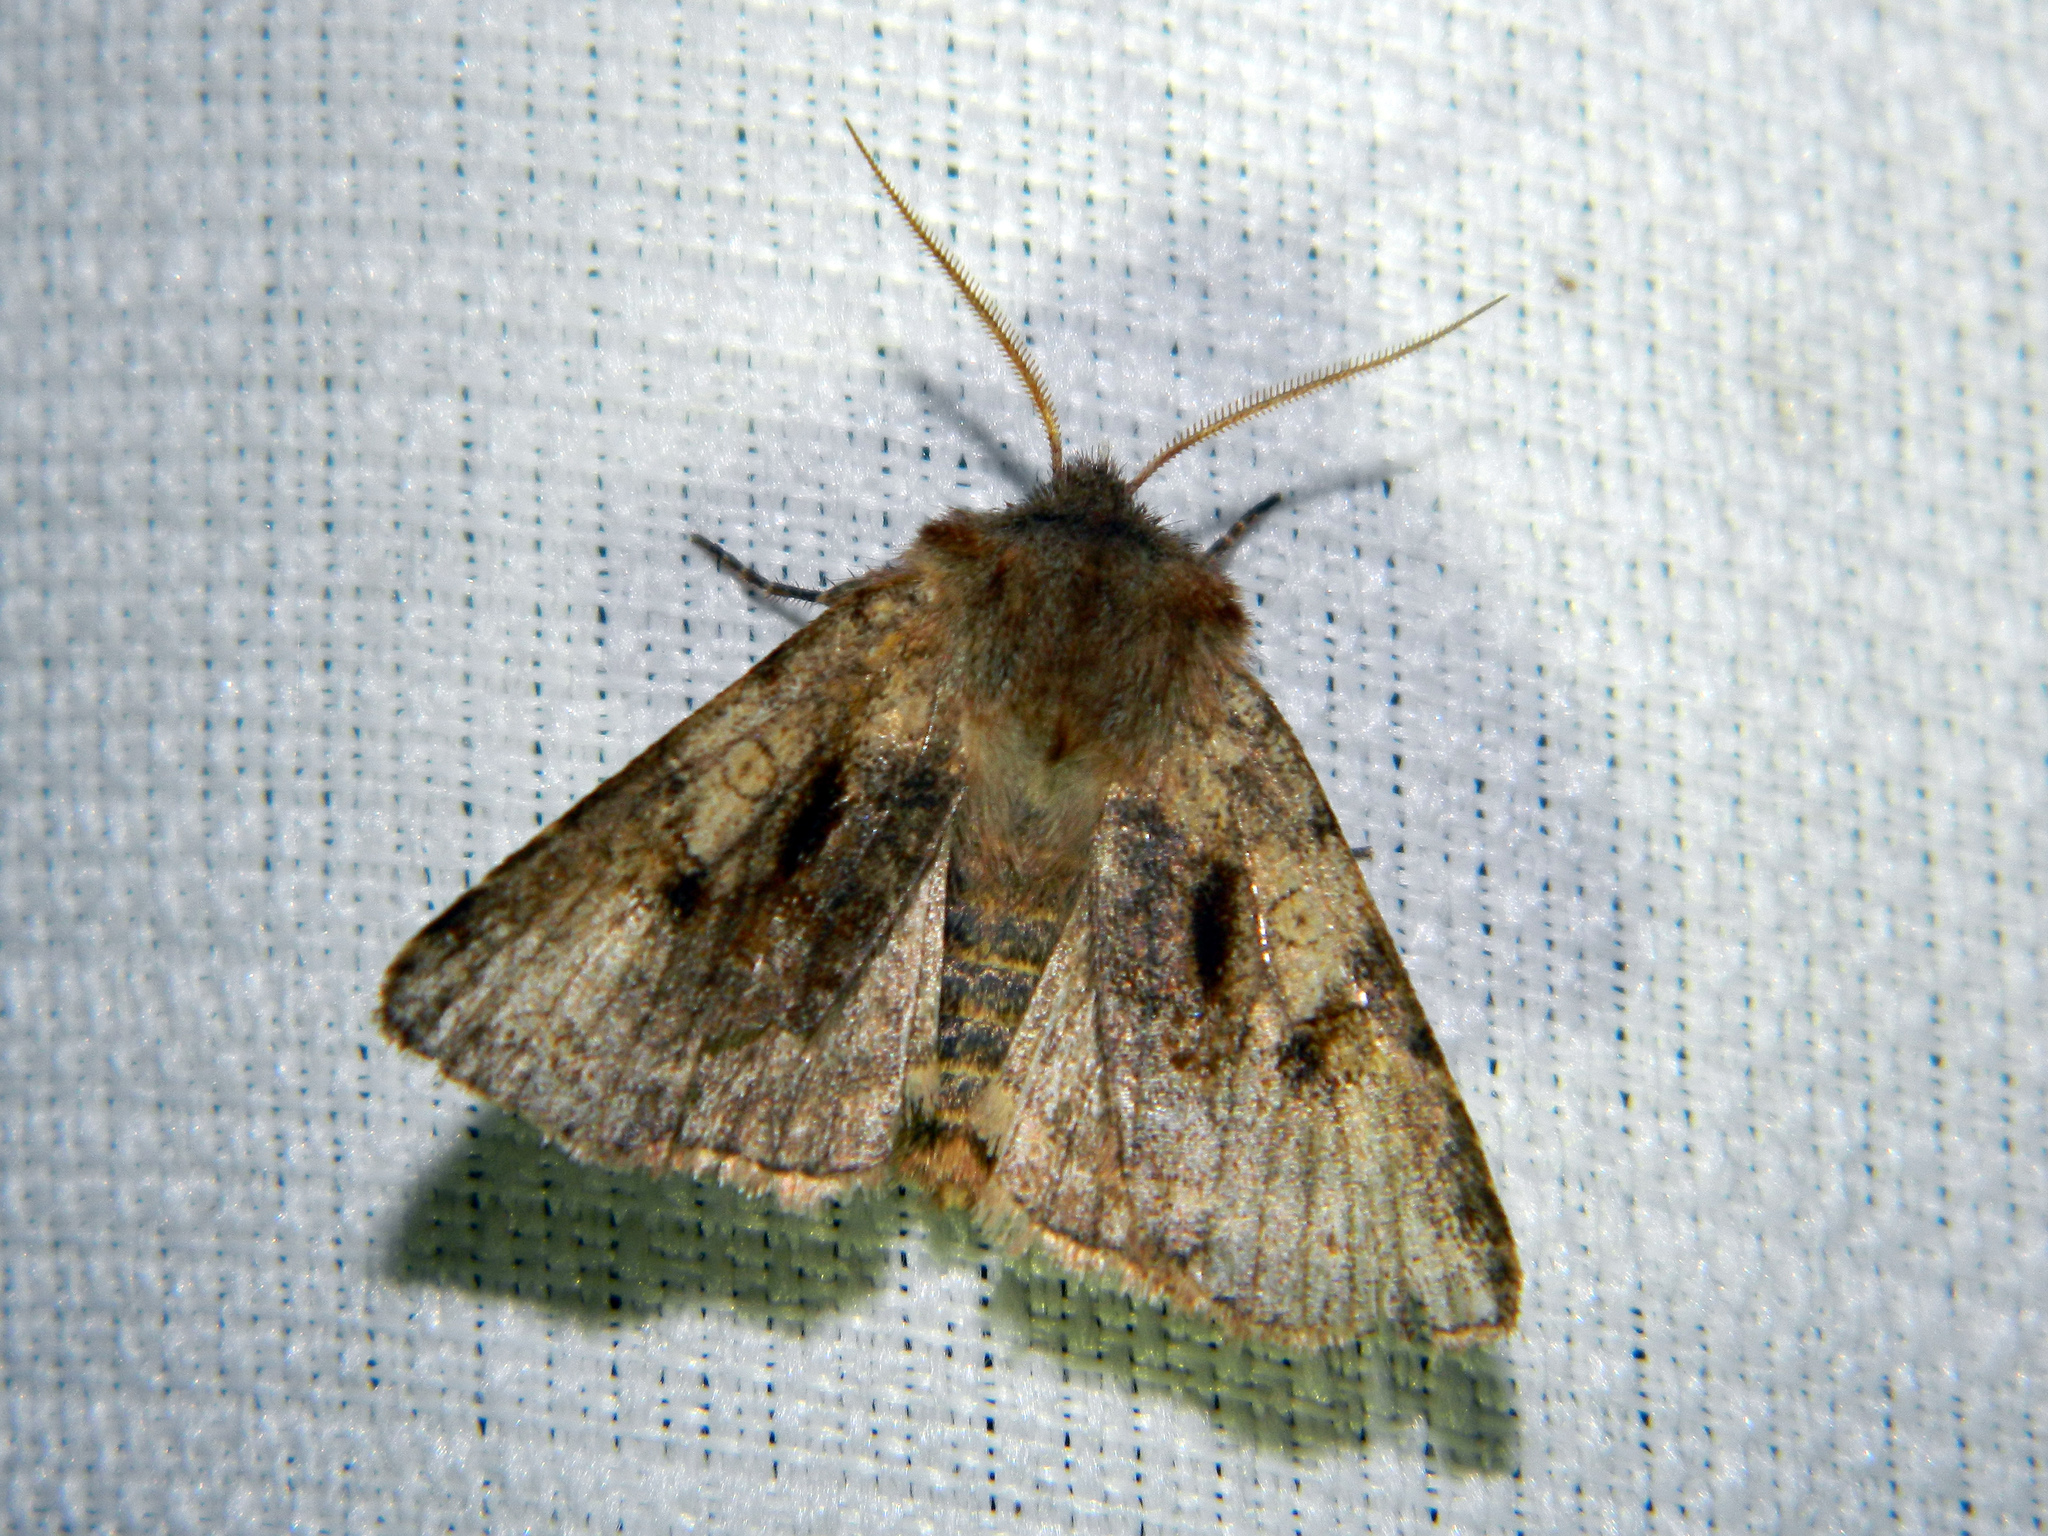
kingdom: Animalia
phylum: Arthropoda
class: Insecta
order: Lepidoptera
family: Noctuidae
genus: Cerastis
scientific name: Cerastis salicarum
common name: Willow dart
